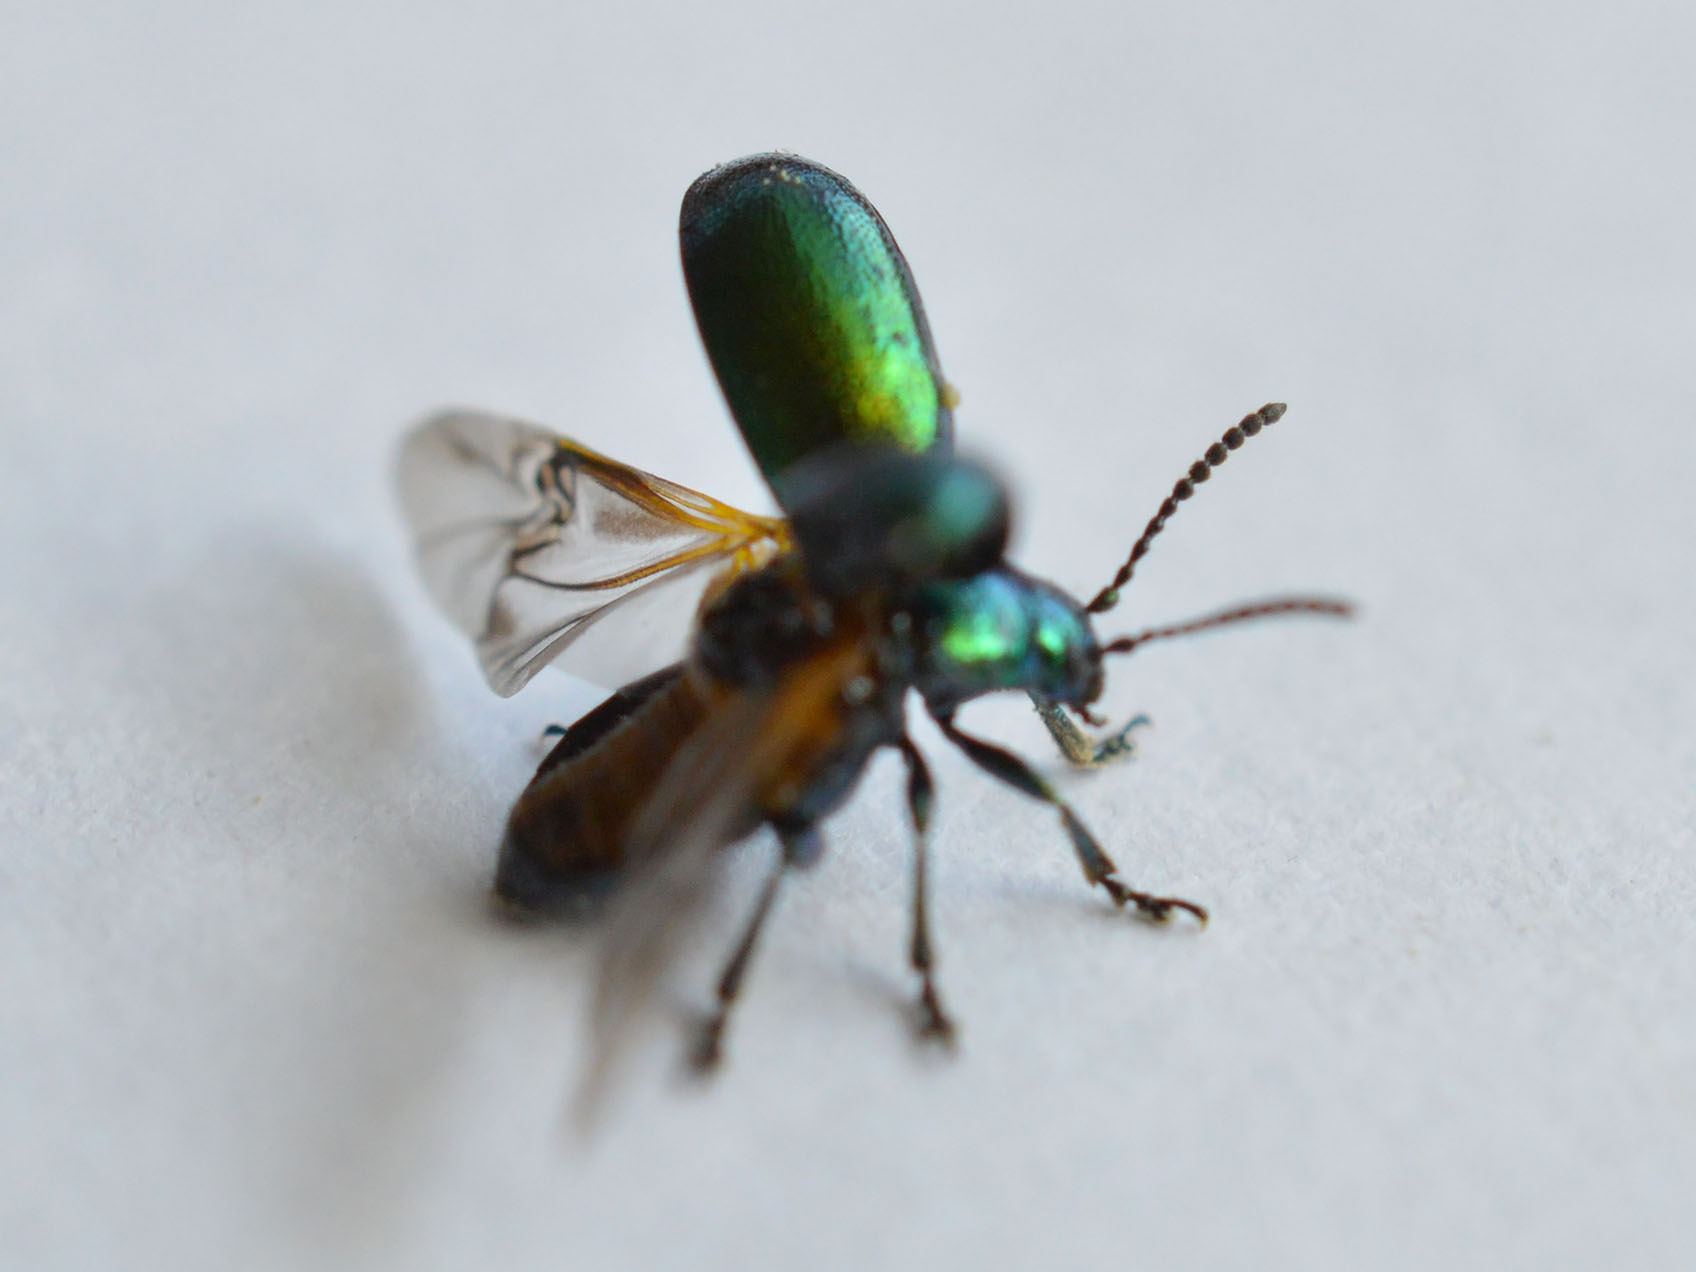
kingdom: Animalia
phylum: Arthropoda
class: Insecta
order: Coleoptera
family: Chrysomelidae
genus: Gastrophysa
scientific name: Gastrophysa viridula
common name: Green dock beetle
